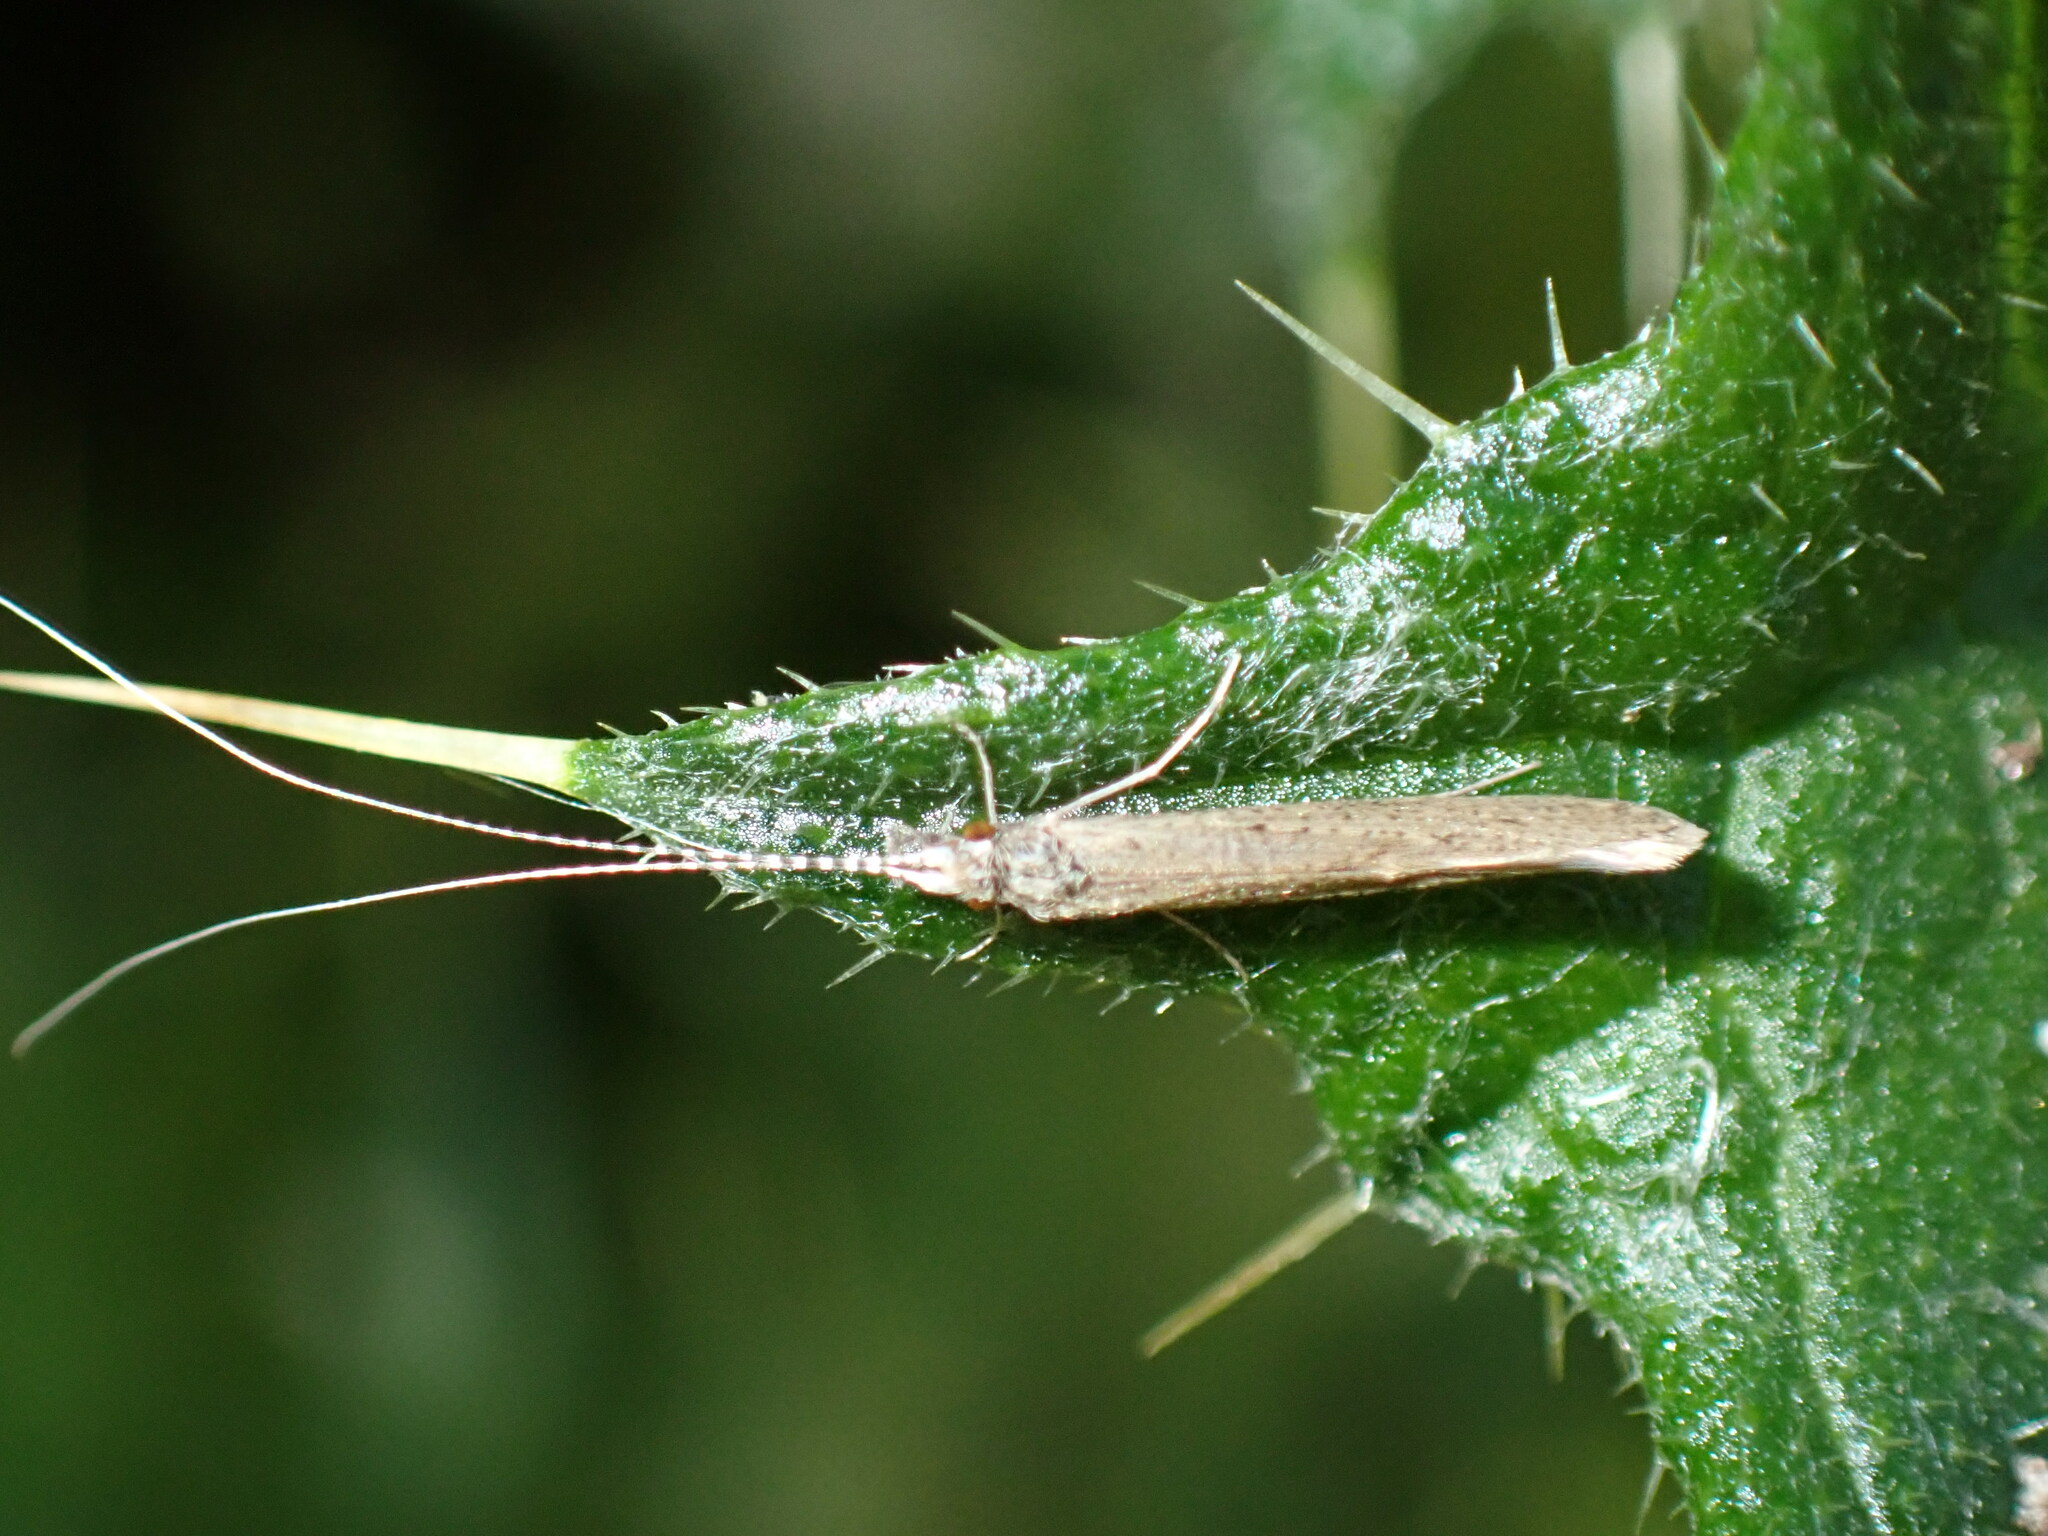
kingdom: Animalia
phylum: Arthropoda
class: Insecta
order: Trichoptera
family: Leptoceridae
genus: Leptocerus
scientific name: Leptocerus tineiformis
